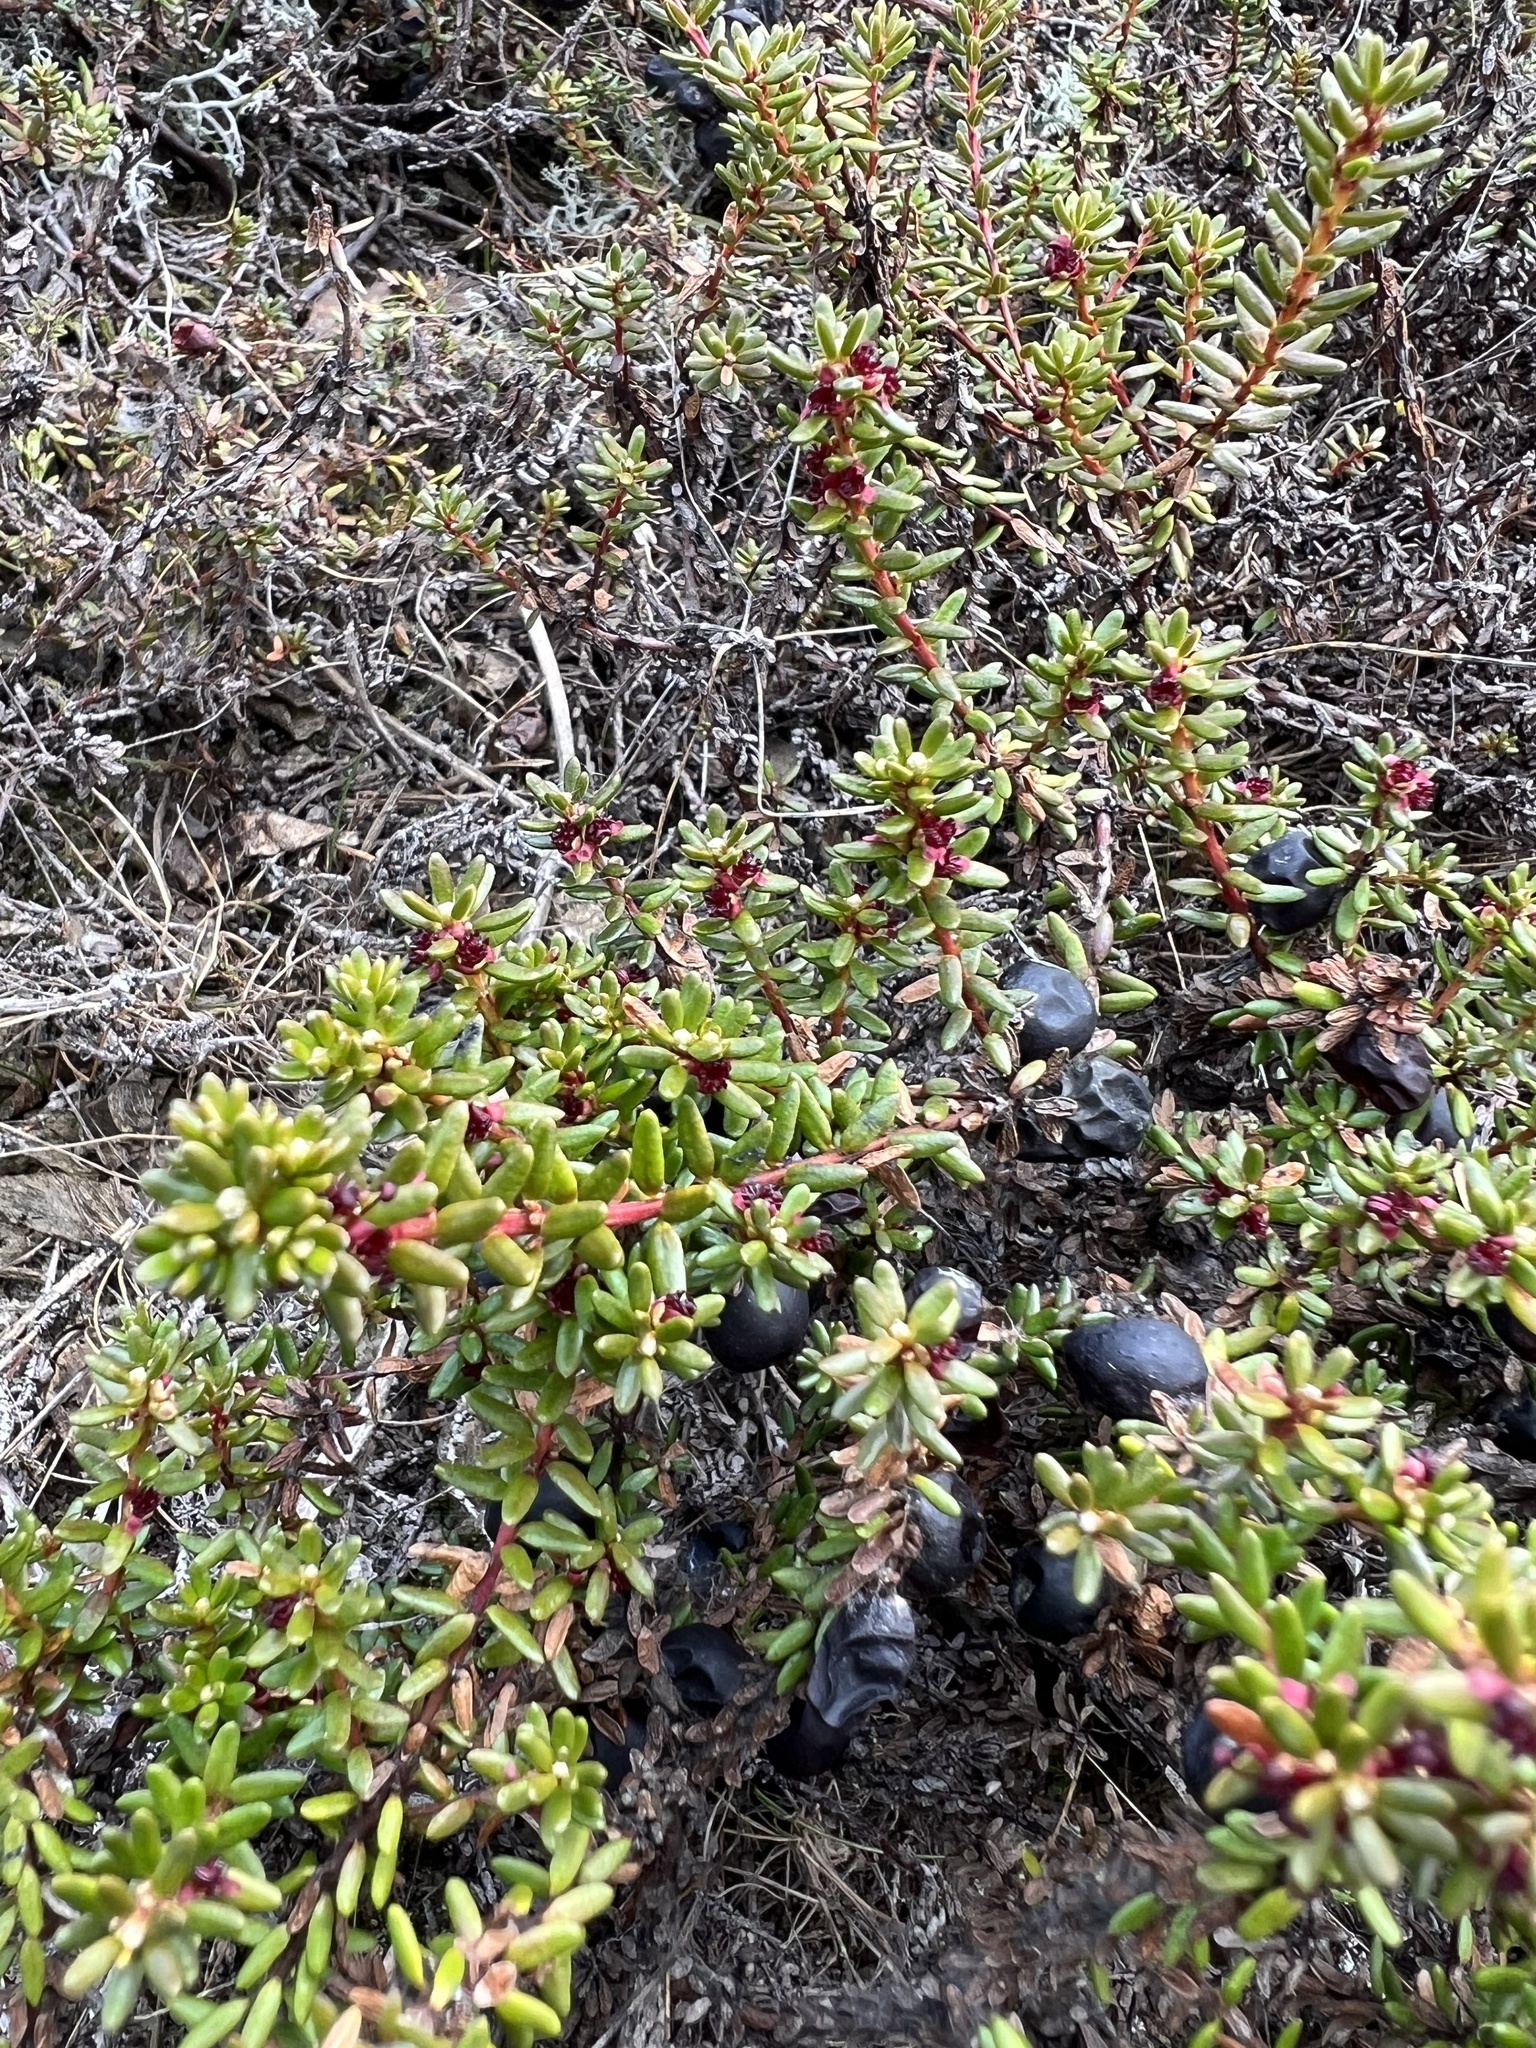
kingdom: Plantae
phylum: Tracheophyta
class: Magnoliopsida
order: Ericales
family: Ericaceae
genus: Empetrum
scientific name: Empetrum nigrum
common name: Black crowberry
